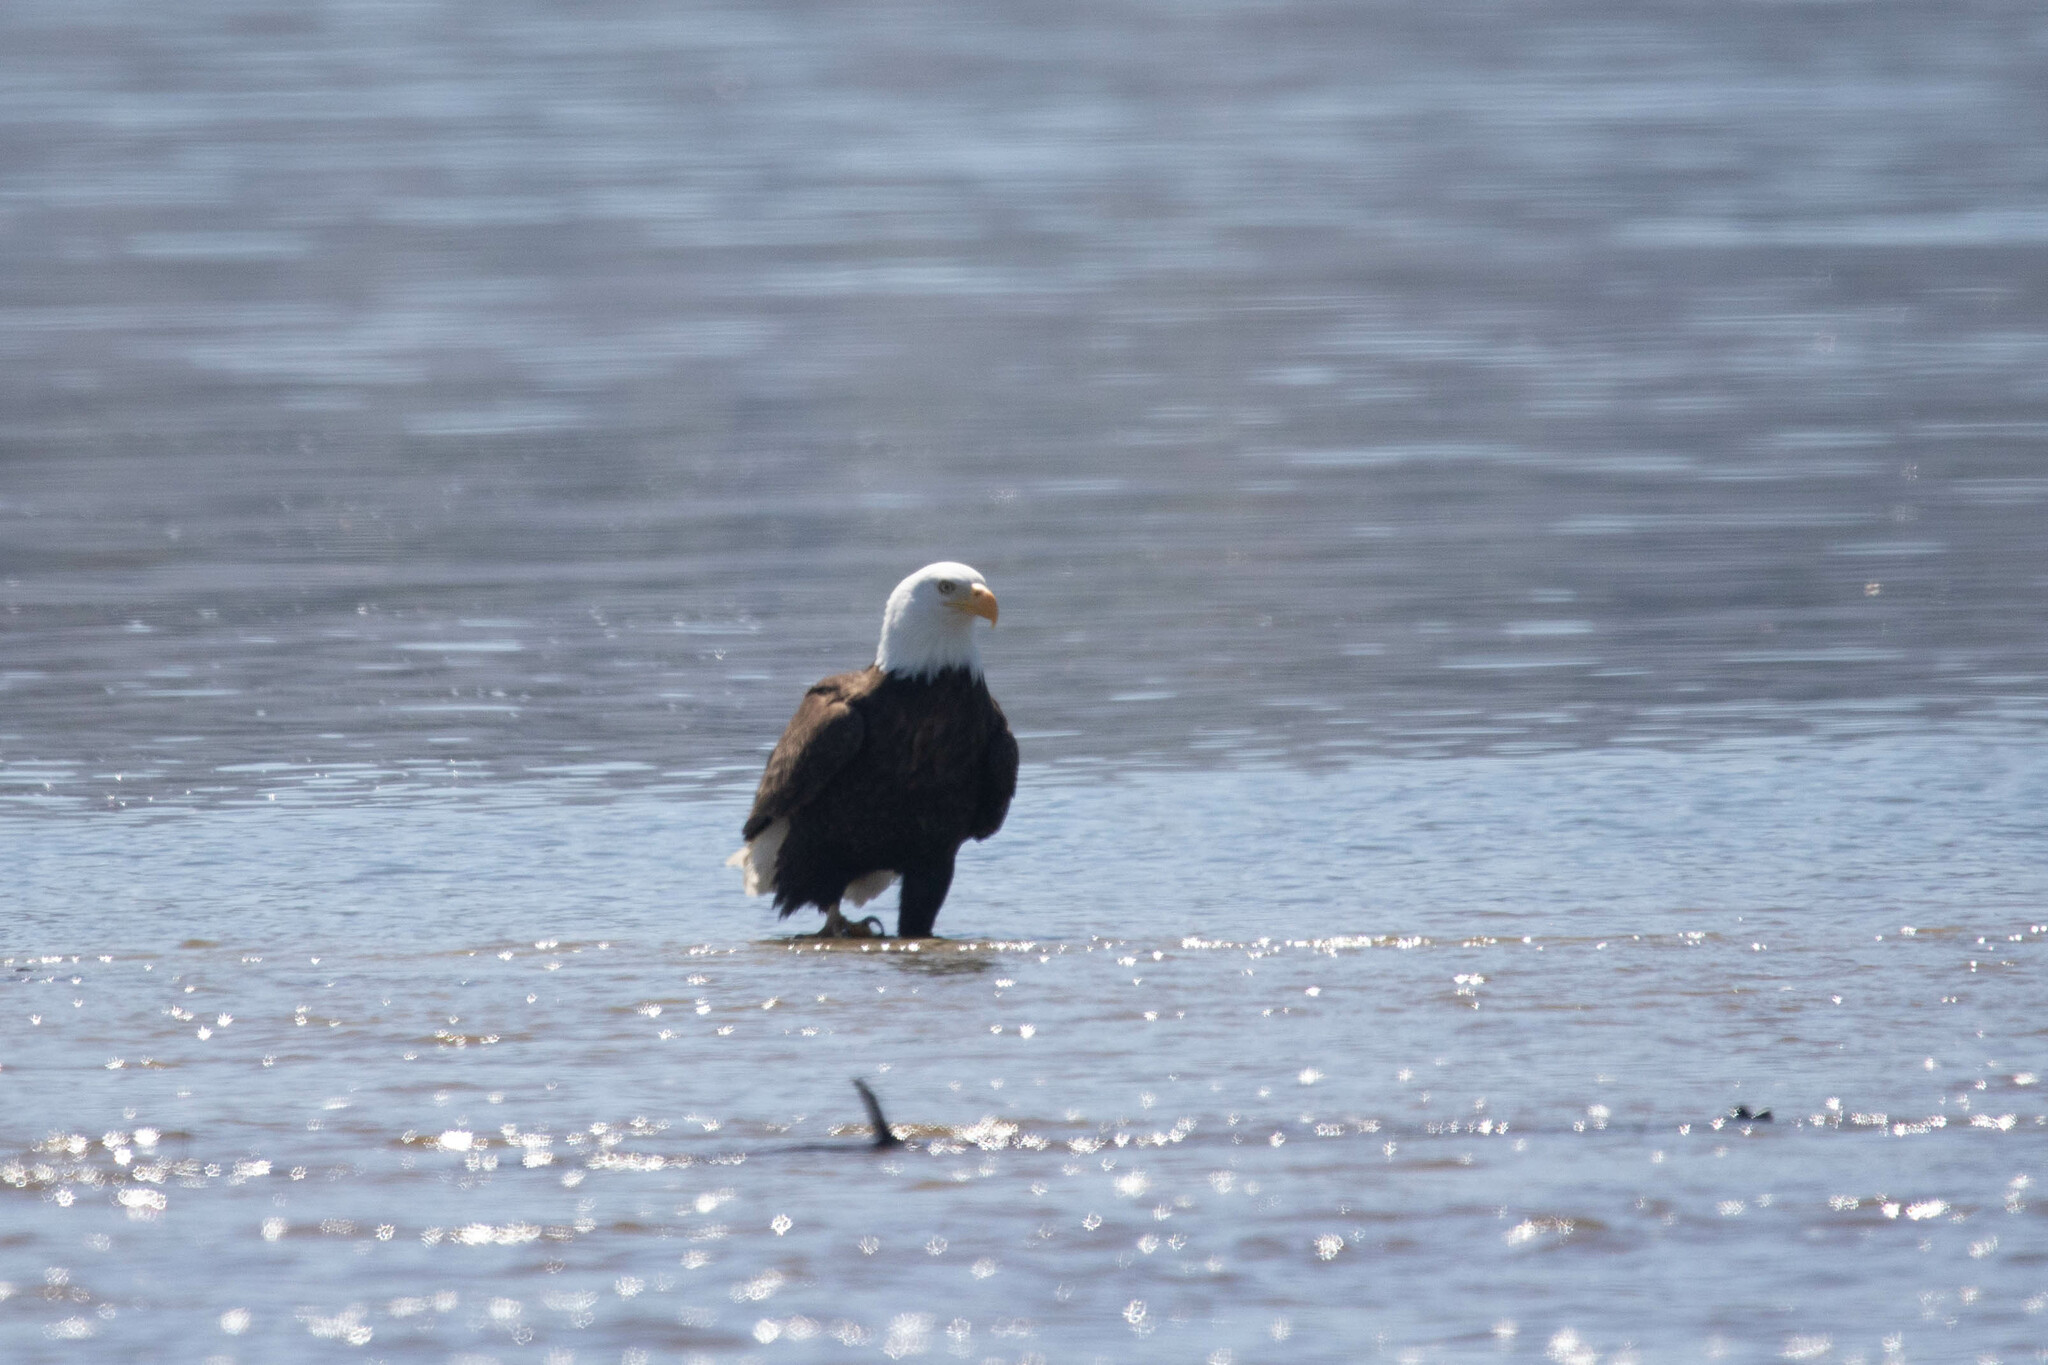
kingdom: Animalia
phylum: Chordata
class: Aves
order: Accipitriformes
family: Accipitridae
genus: Haliaeetus
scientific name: Haliaeetus leucocephalus
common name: Bald eagle
